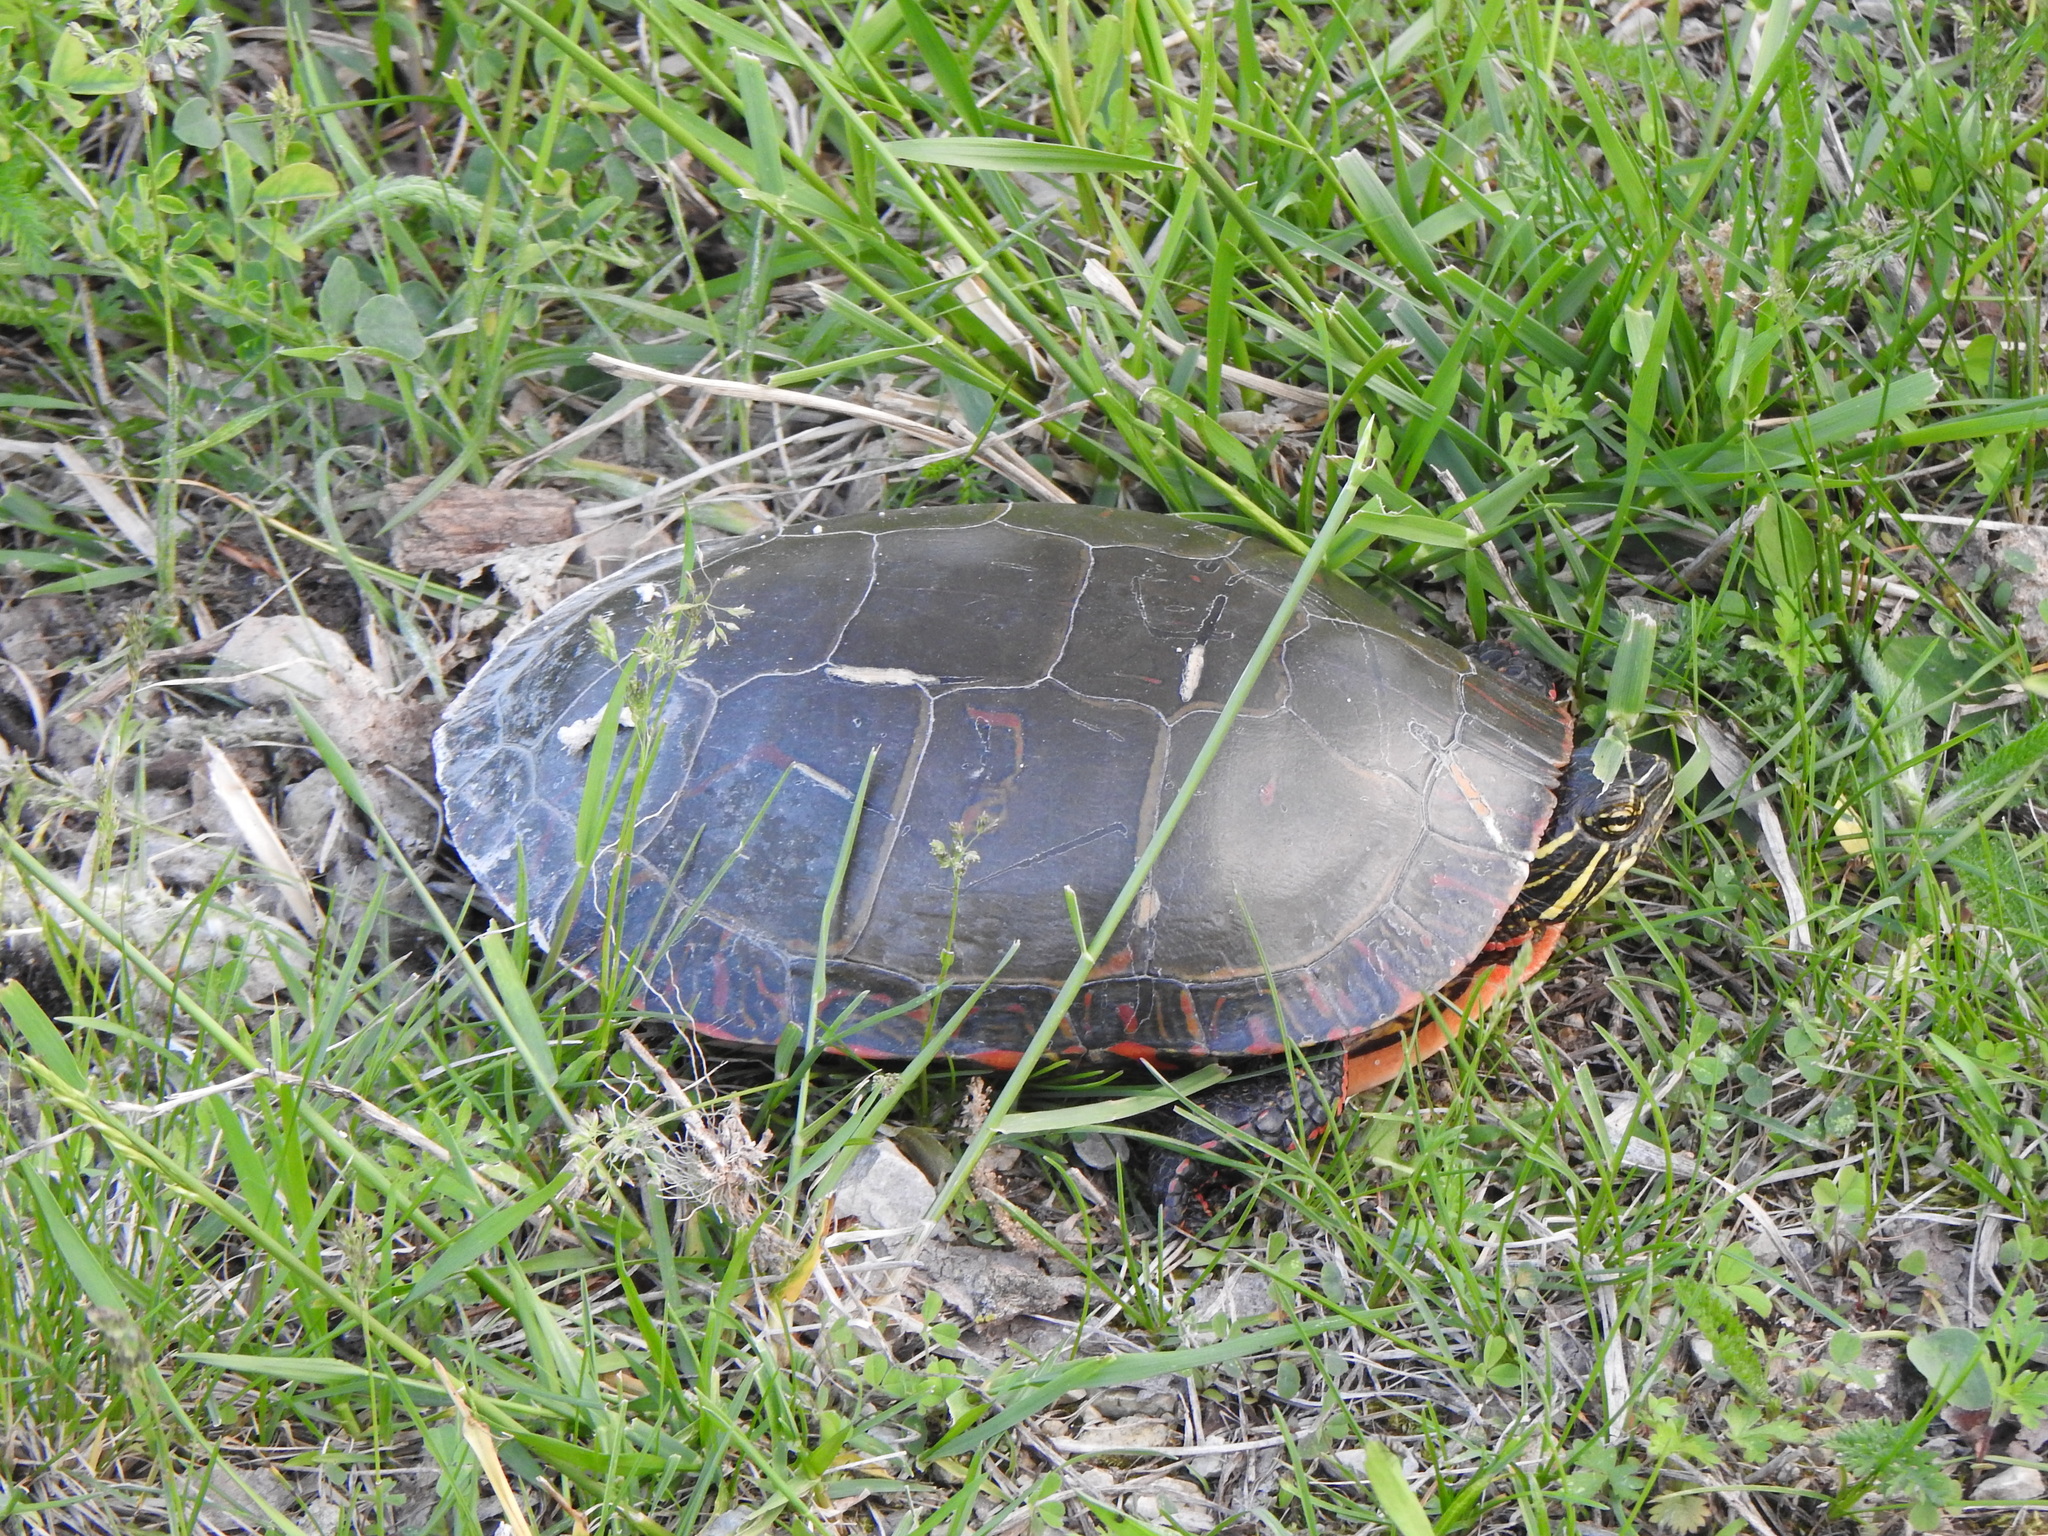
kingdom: Animalia
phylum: Chordata
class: Testudines
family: Emydidae
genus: Chrysemys
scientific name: Chrysemys picta
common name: Painted turtle
